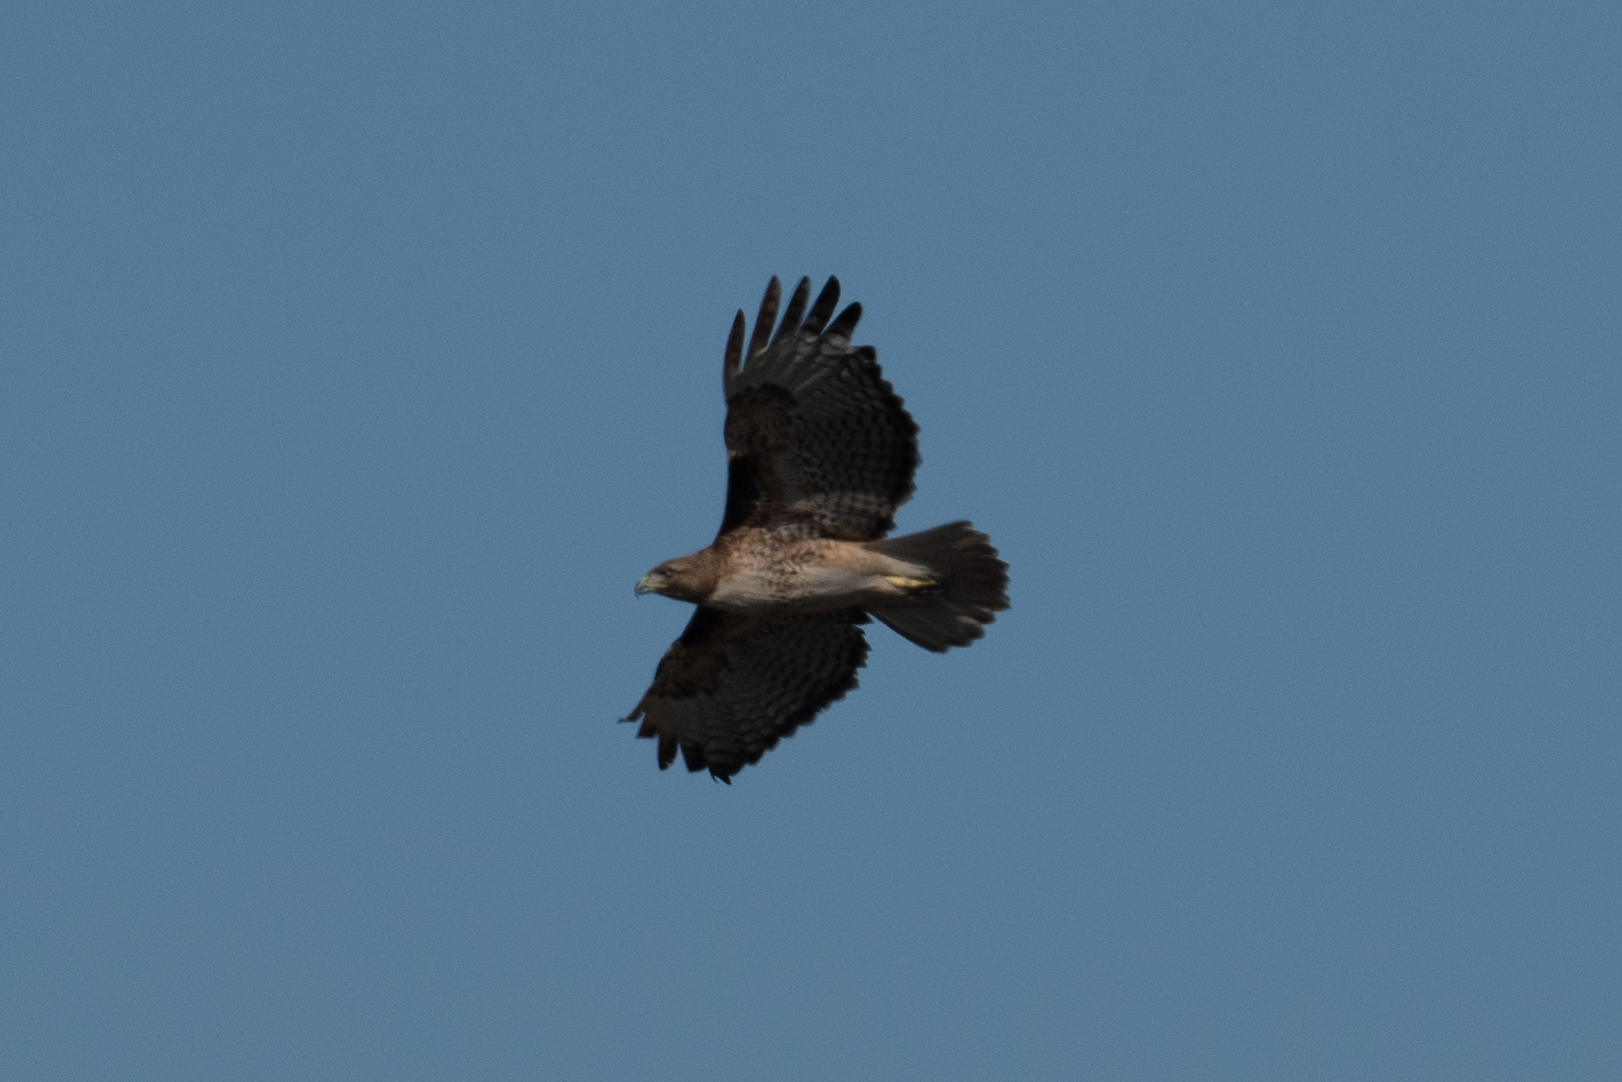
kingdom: Animalia
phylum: Chordata
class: Aves
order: Accipitriformes
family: Accipitridae
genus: Buteo
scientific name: Buteo jamaicensis
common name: Red-tailed hawk
